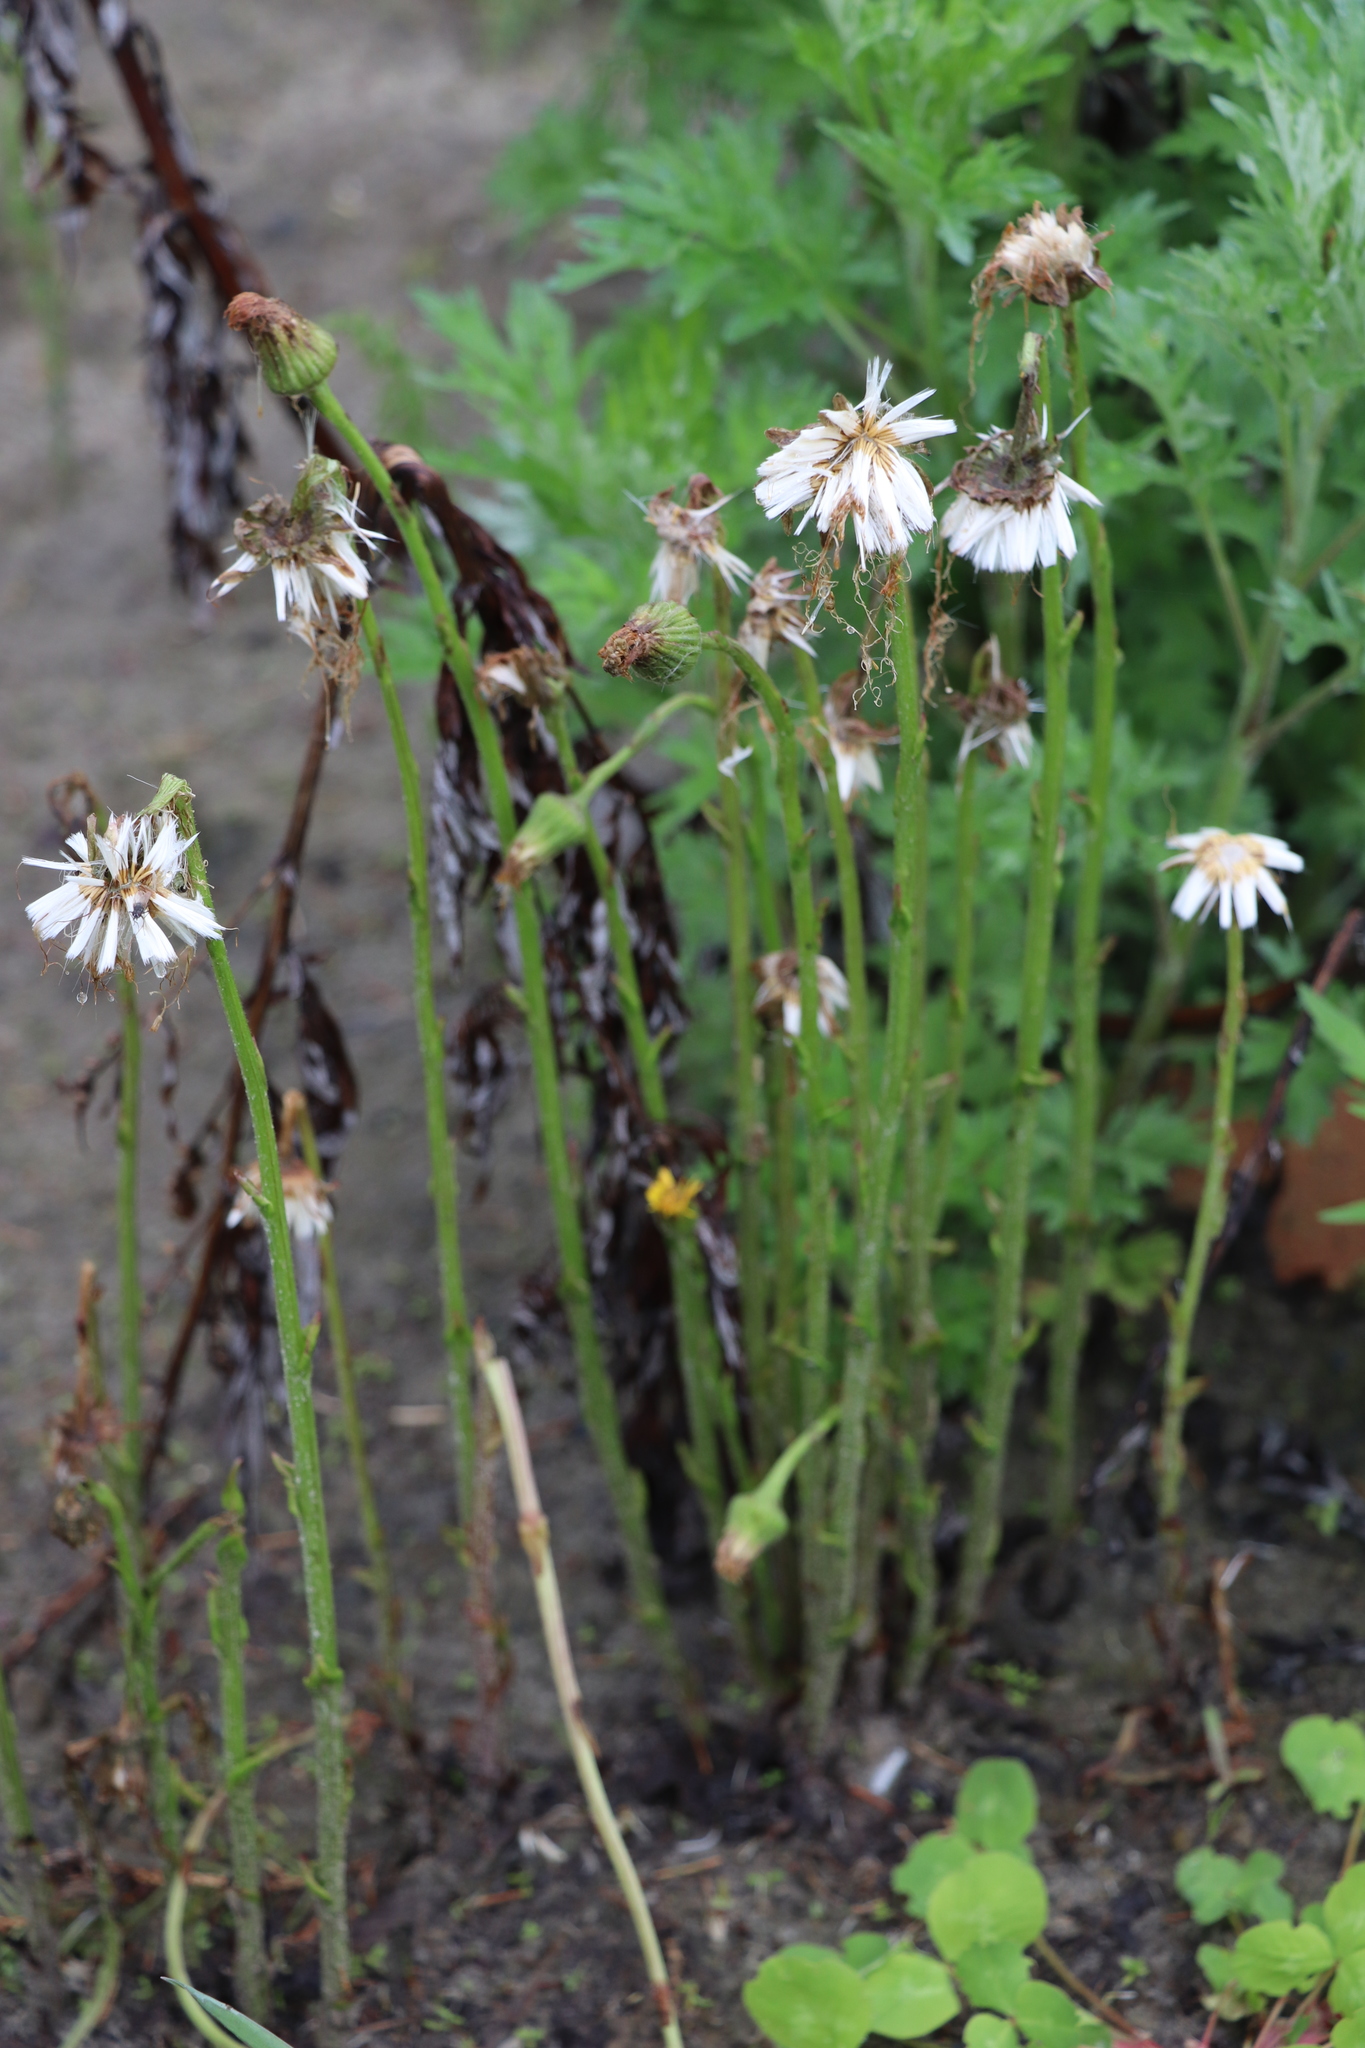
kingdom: Plantae
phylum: Tracheophyta
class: Magnoliopsida
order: Asterales
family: Asteraceae
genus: Tussilago
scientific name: Tussilago farfara
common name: Coltsfoot
